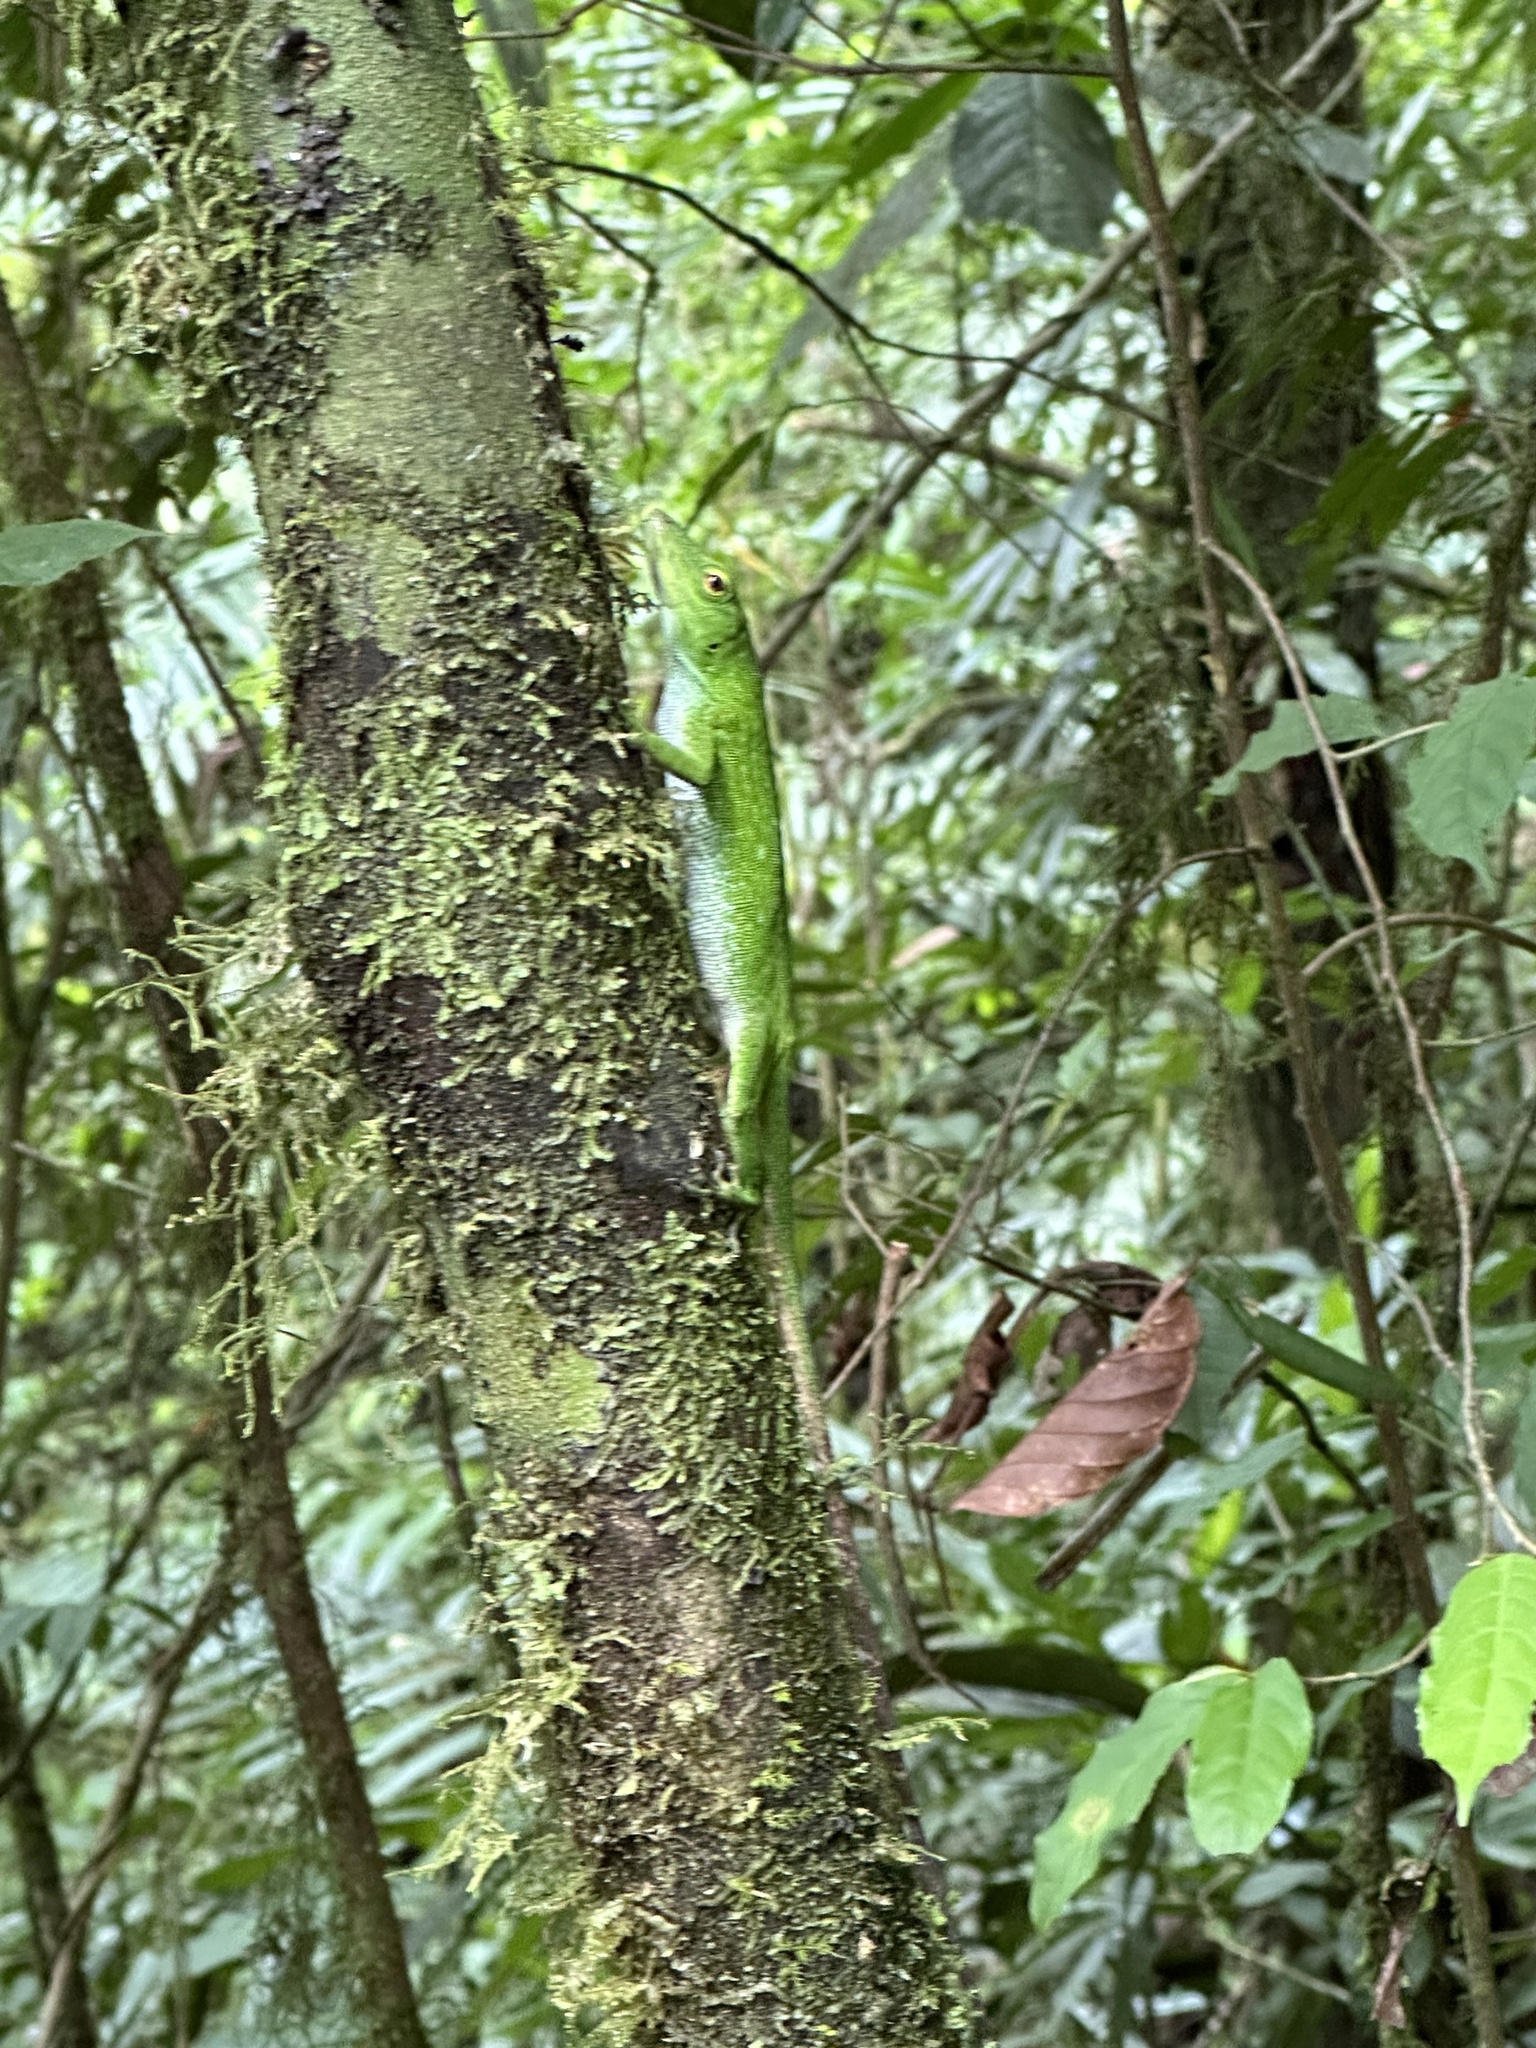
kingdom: Animalia
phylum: Chordata
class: Squamata
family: Dactyloidae
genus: Anolis
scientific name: Anolis biporcatus
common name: Giant green anole
